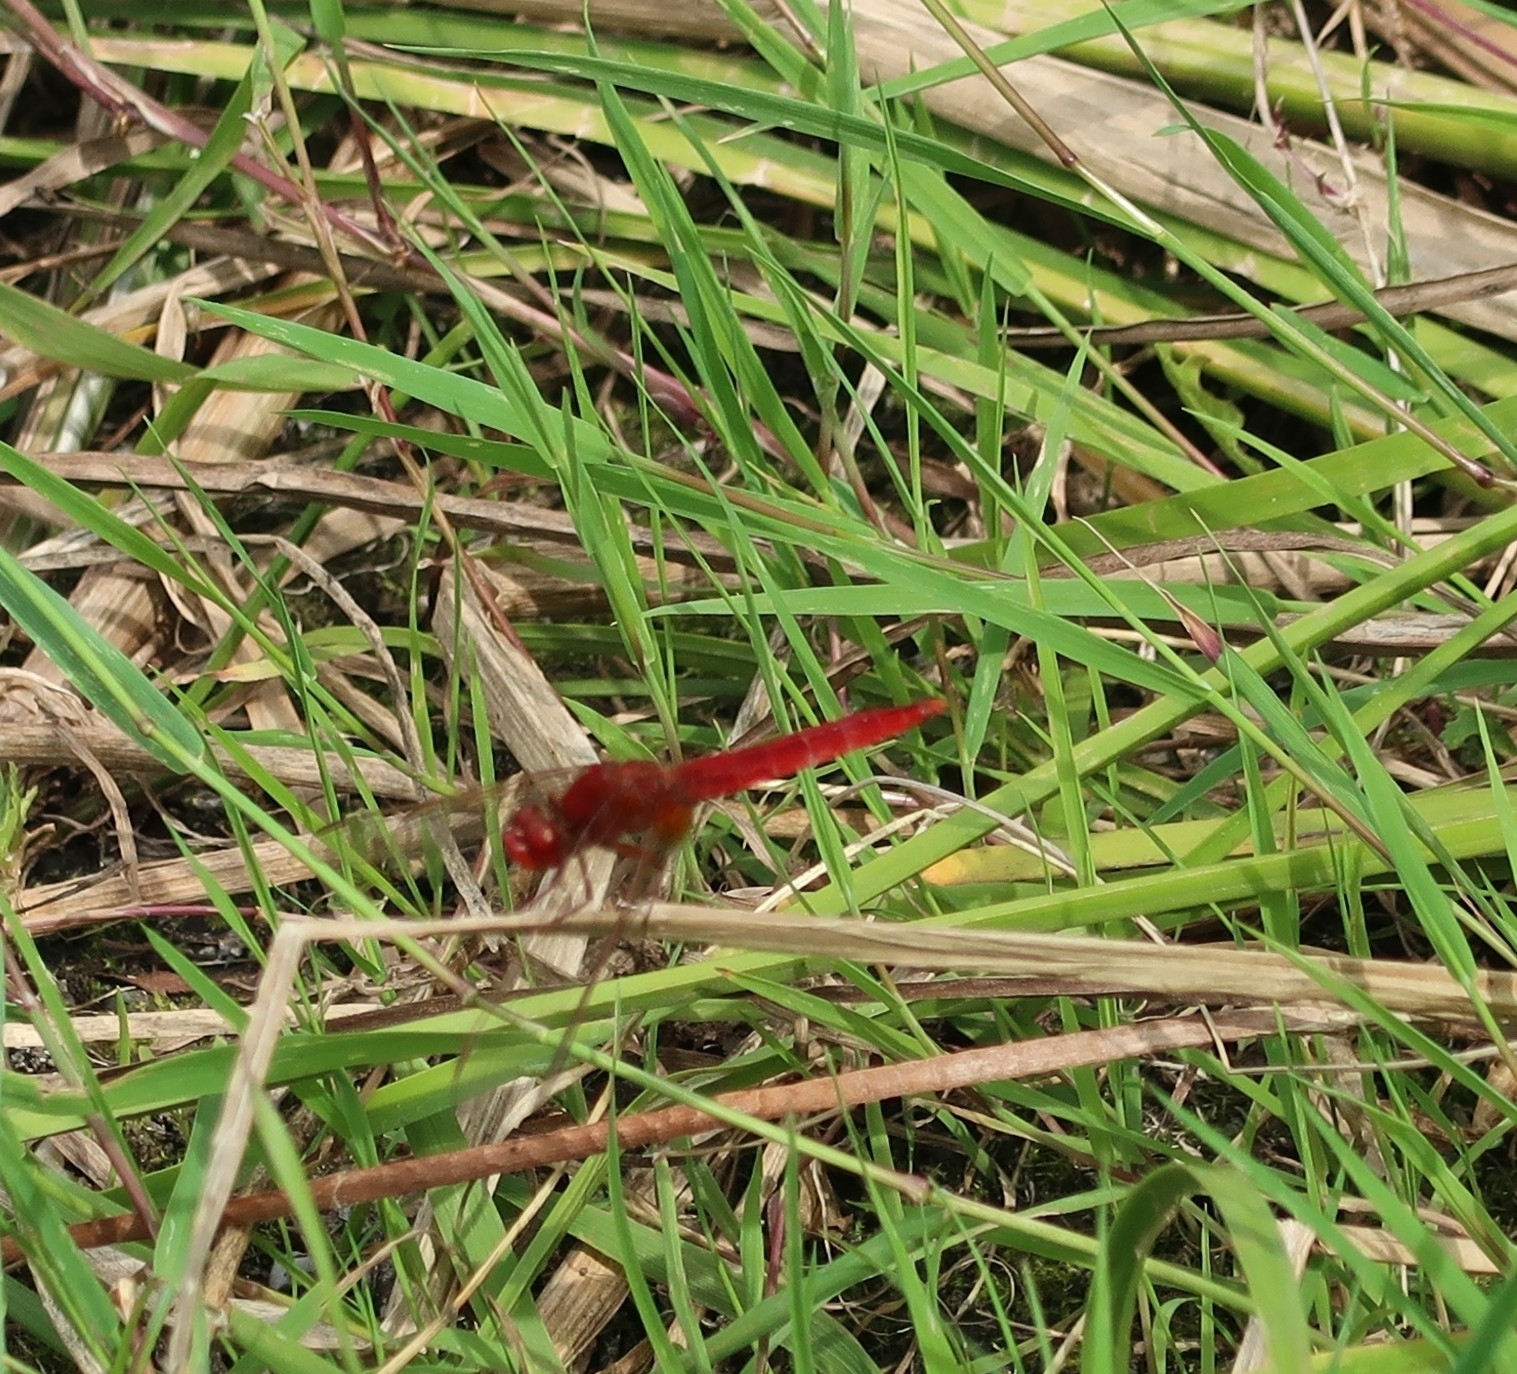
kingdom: Animalia
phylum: Arthropoda
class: Insecta
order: Odonata
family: Libellulidae
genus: Crocothemis
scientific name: Crocothemis erythraea
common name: Scarlet dragonfly
